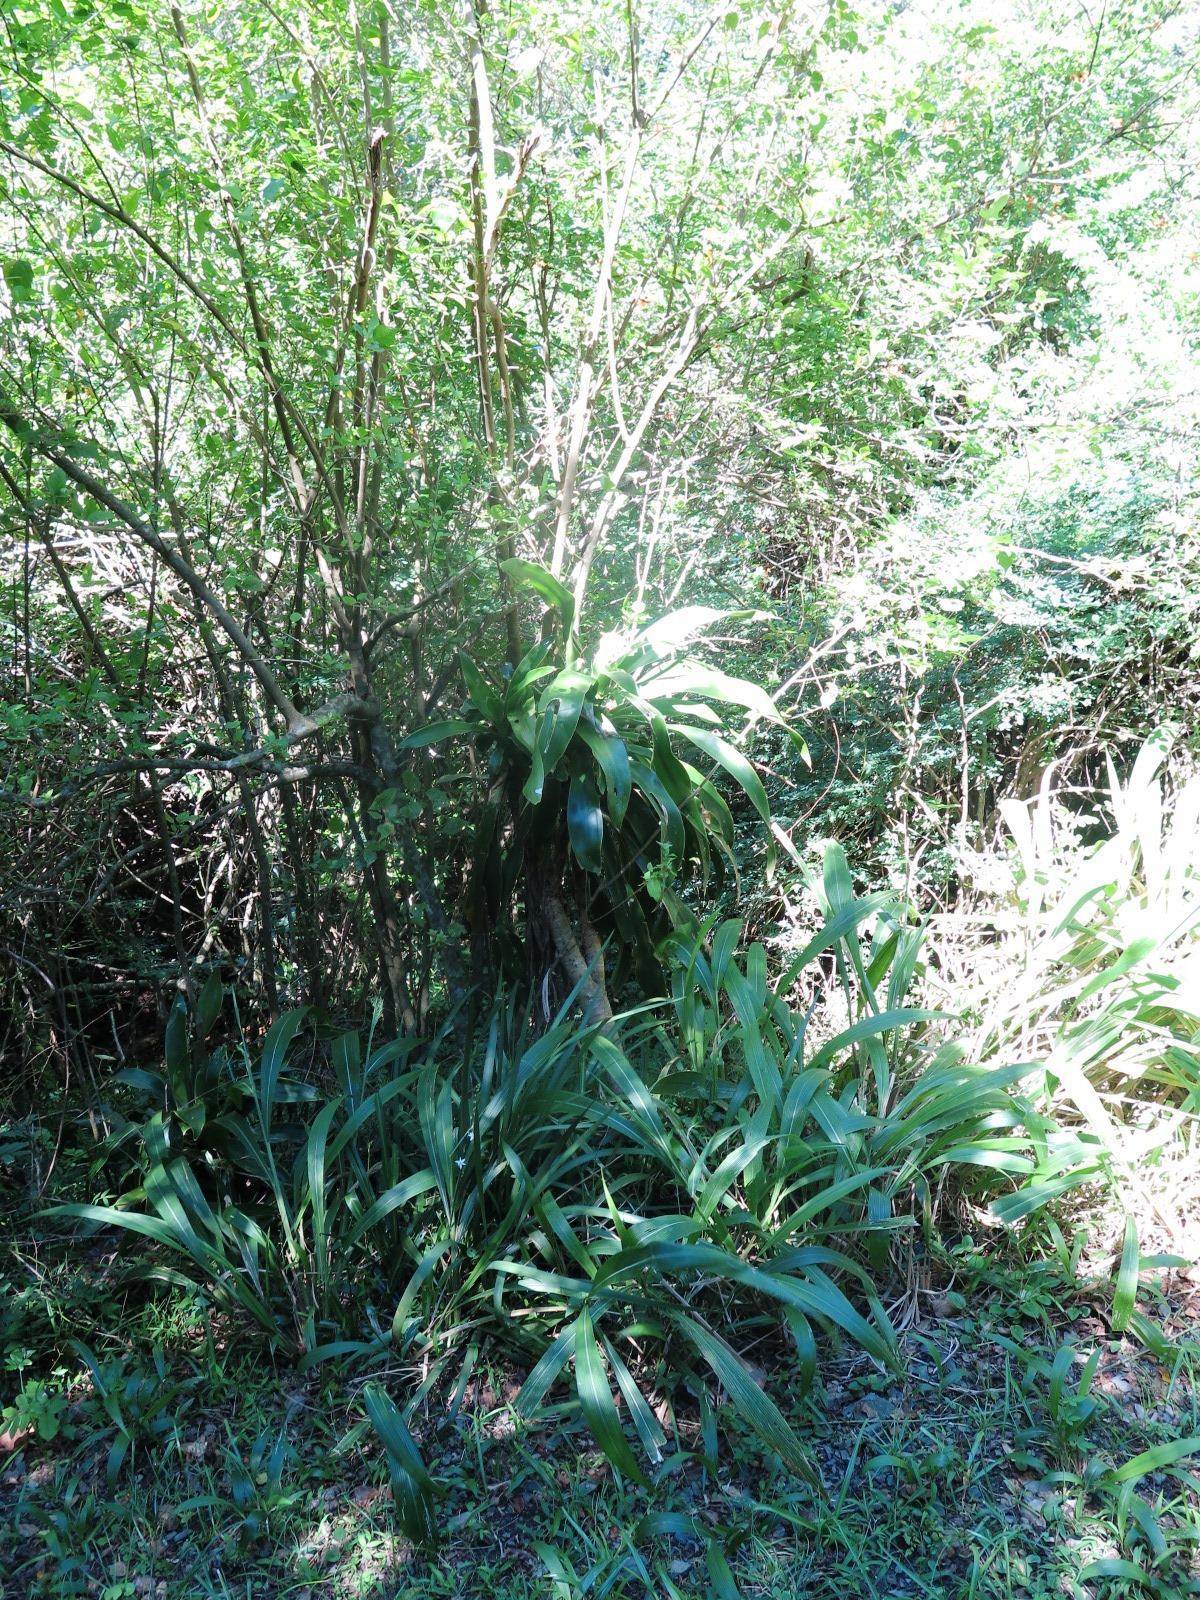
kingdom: Plantae
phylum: Tracheophyta
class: Liliopsida
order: Asparagales
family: Asparagaceae
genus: Dracaena
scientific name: Dracaena aletriformis
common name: Large-leaved dragon tree
